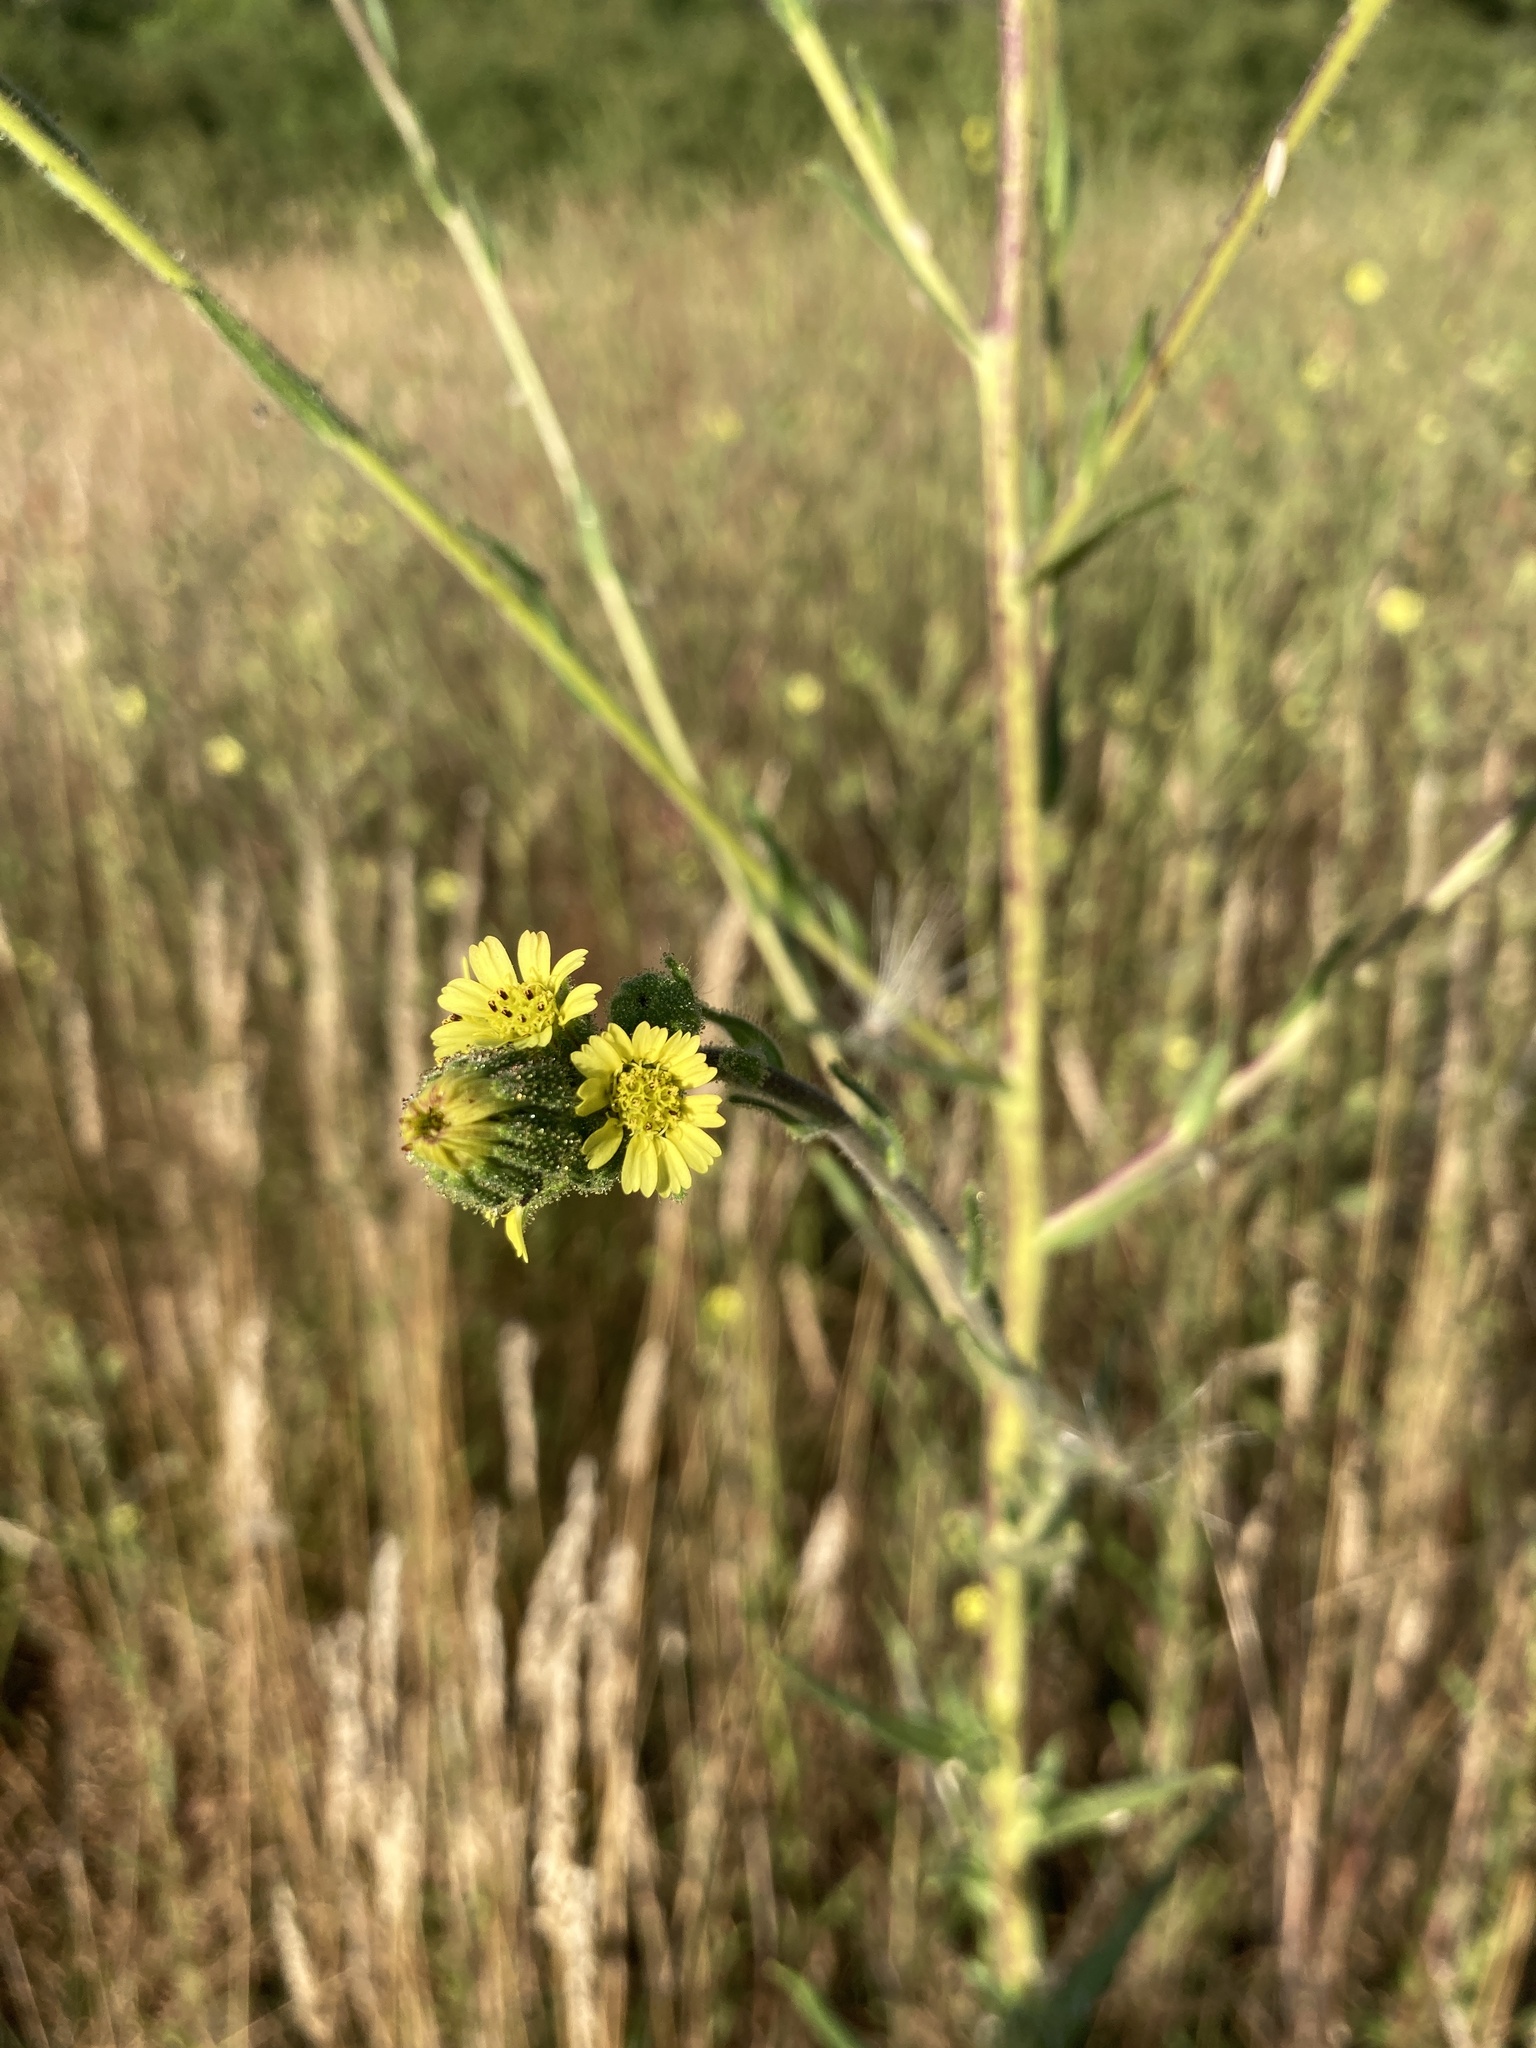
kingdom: Plantae
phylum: Tracheophyta
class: Magnoliopsida
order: Asterales
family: Asteraceae
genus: Madia
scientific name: Madia sativa
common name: Coast tarweed
